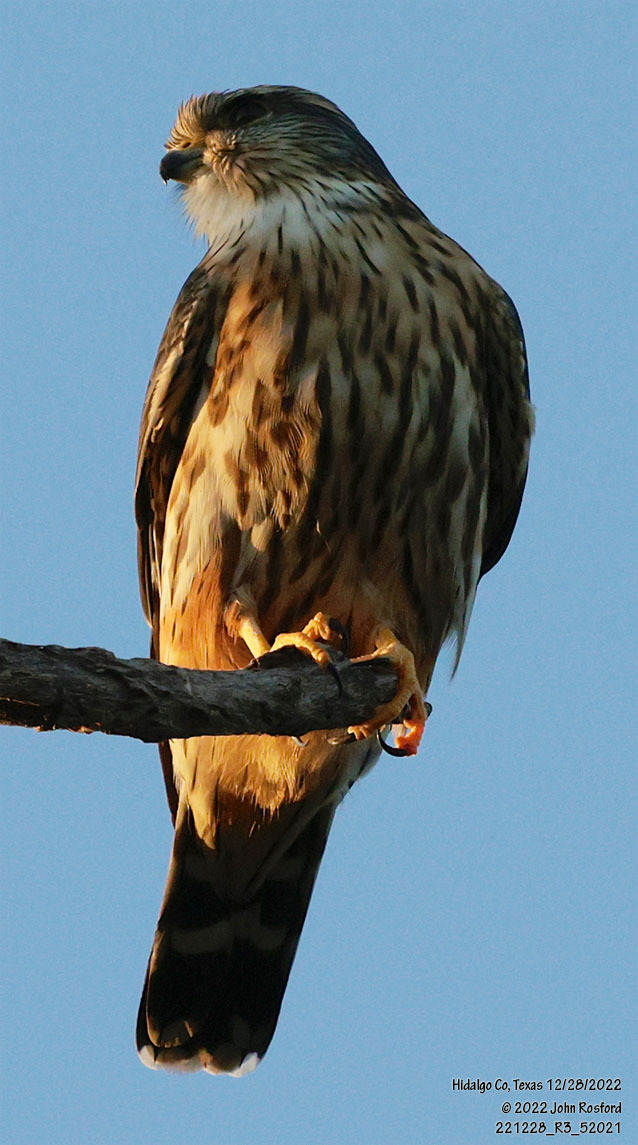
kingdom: Animalia
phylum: Chordata
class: Aves
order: Falconiformes
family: Falconidae
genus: Falco
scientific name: Falco columbarius
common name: Merlin
